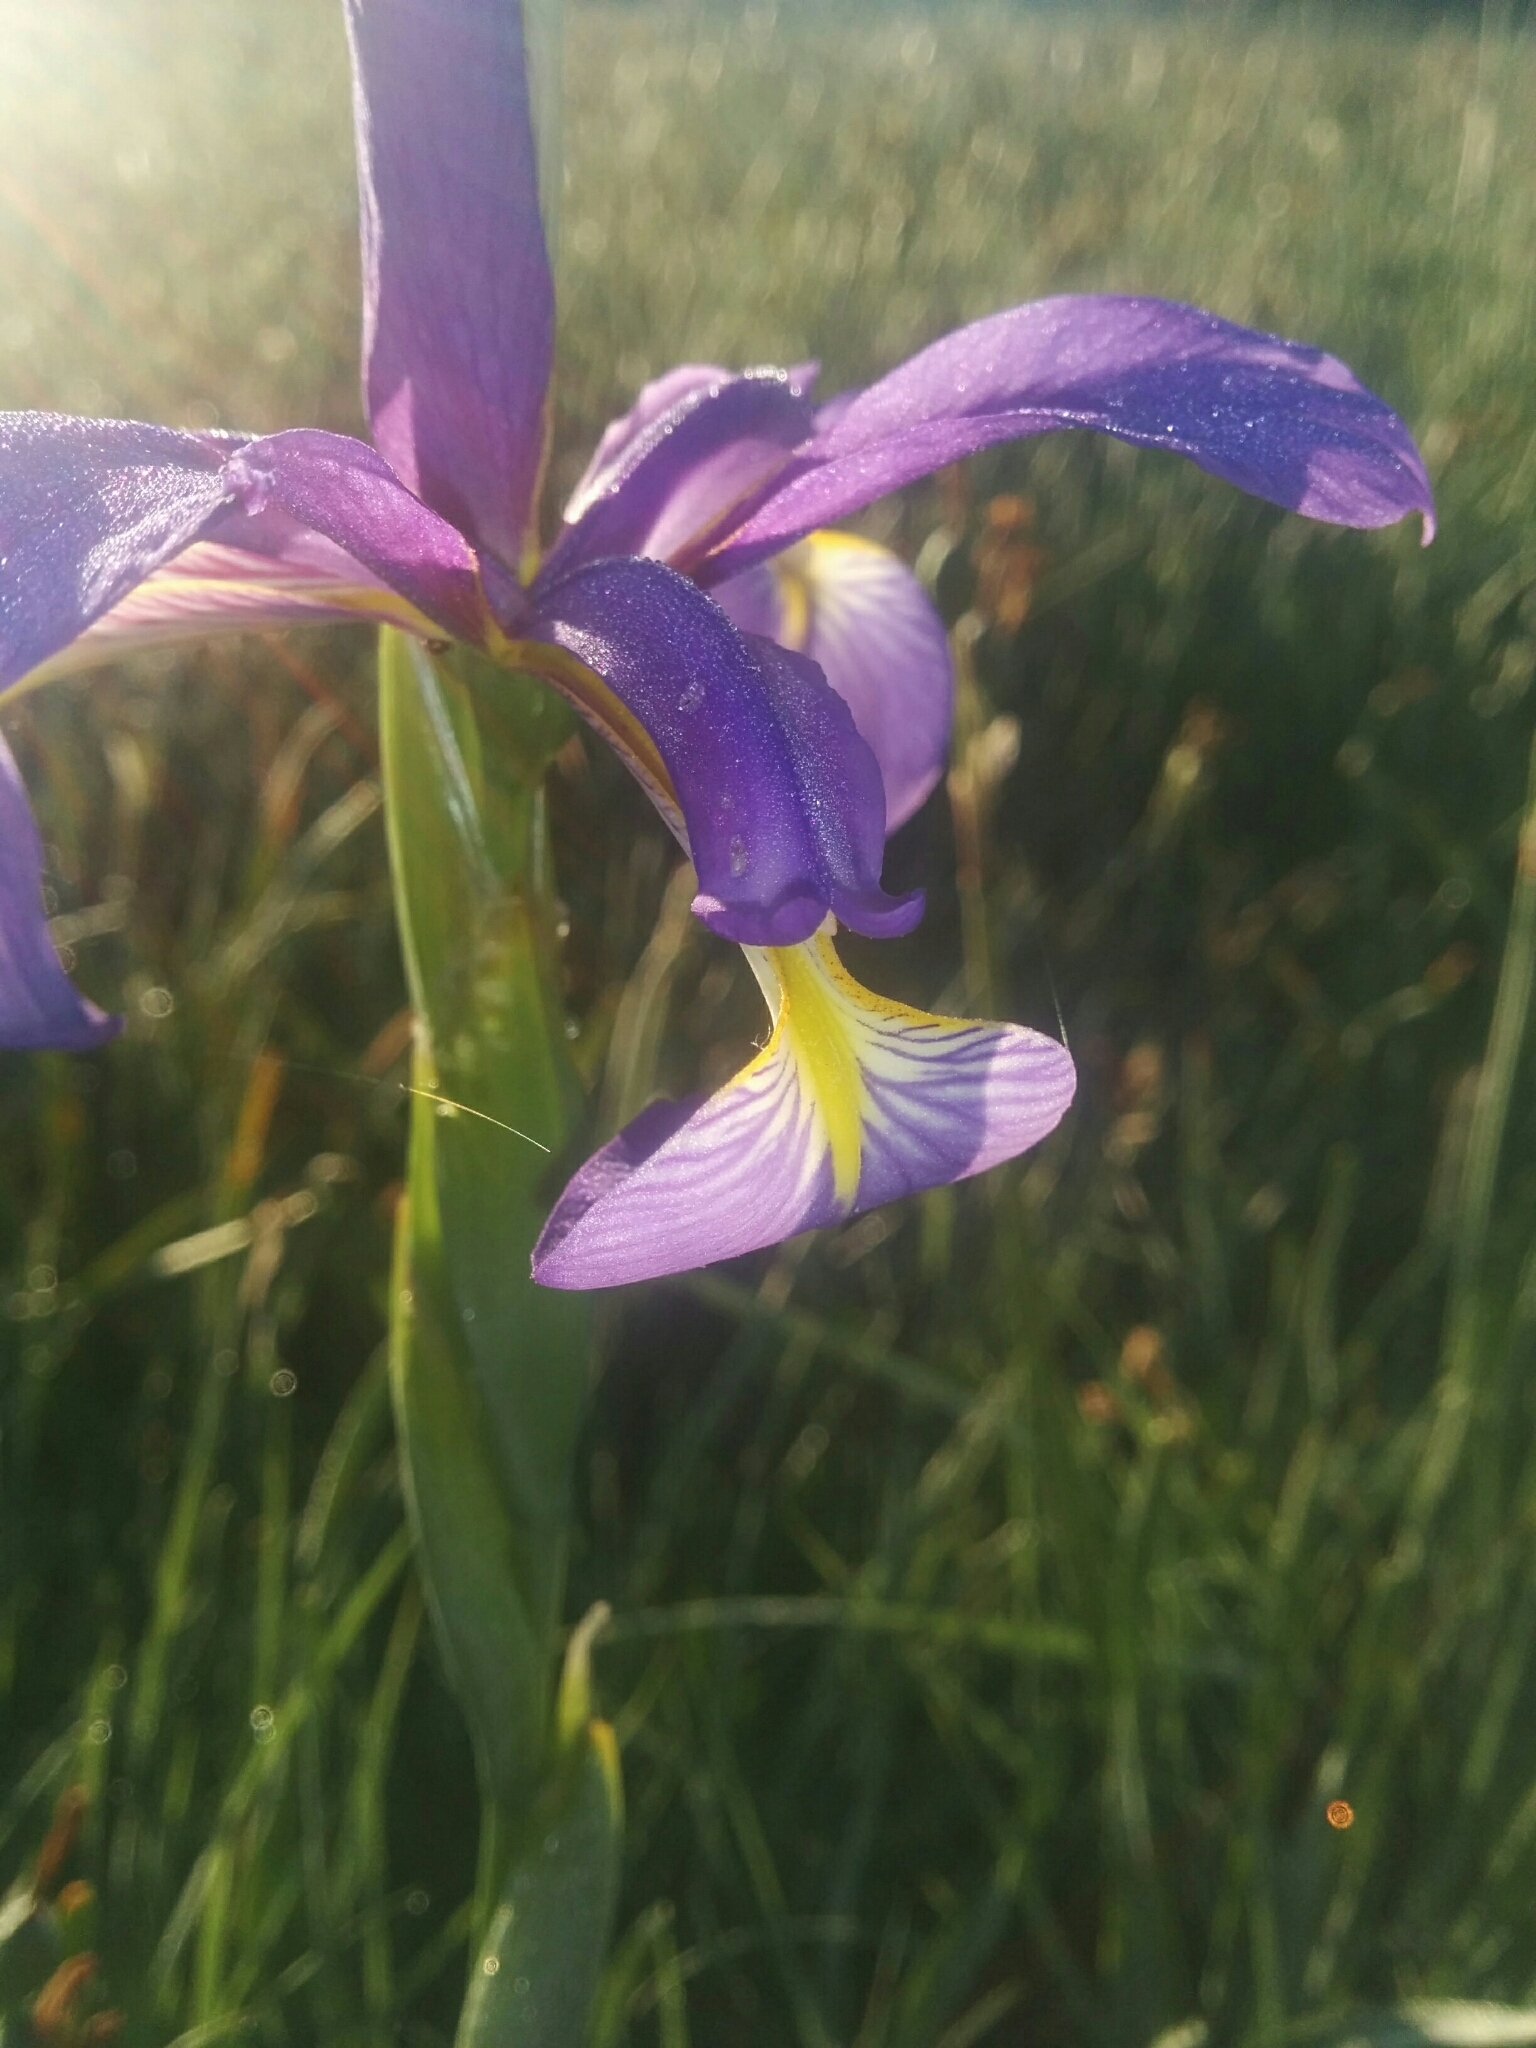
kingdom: Plantae
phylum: Tracheophyta
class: Liliopsida
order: Asparagales
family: Iridaceae
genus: Iris
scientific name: Iris reichenbachiana
